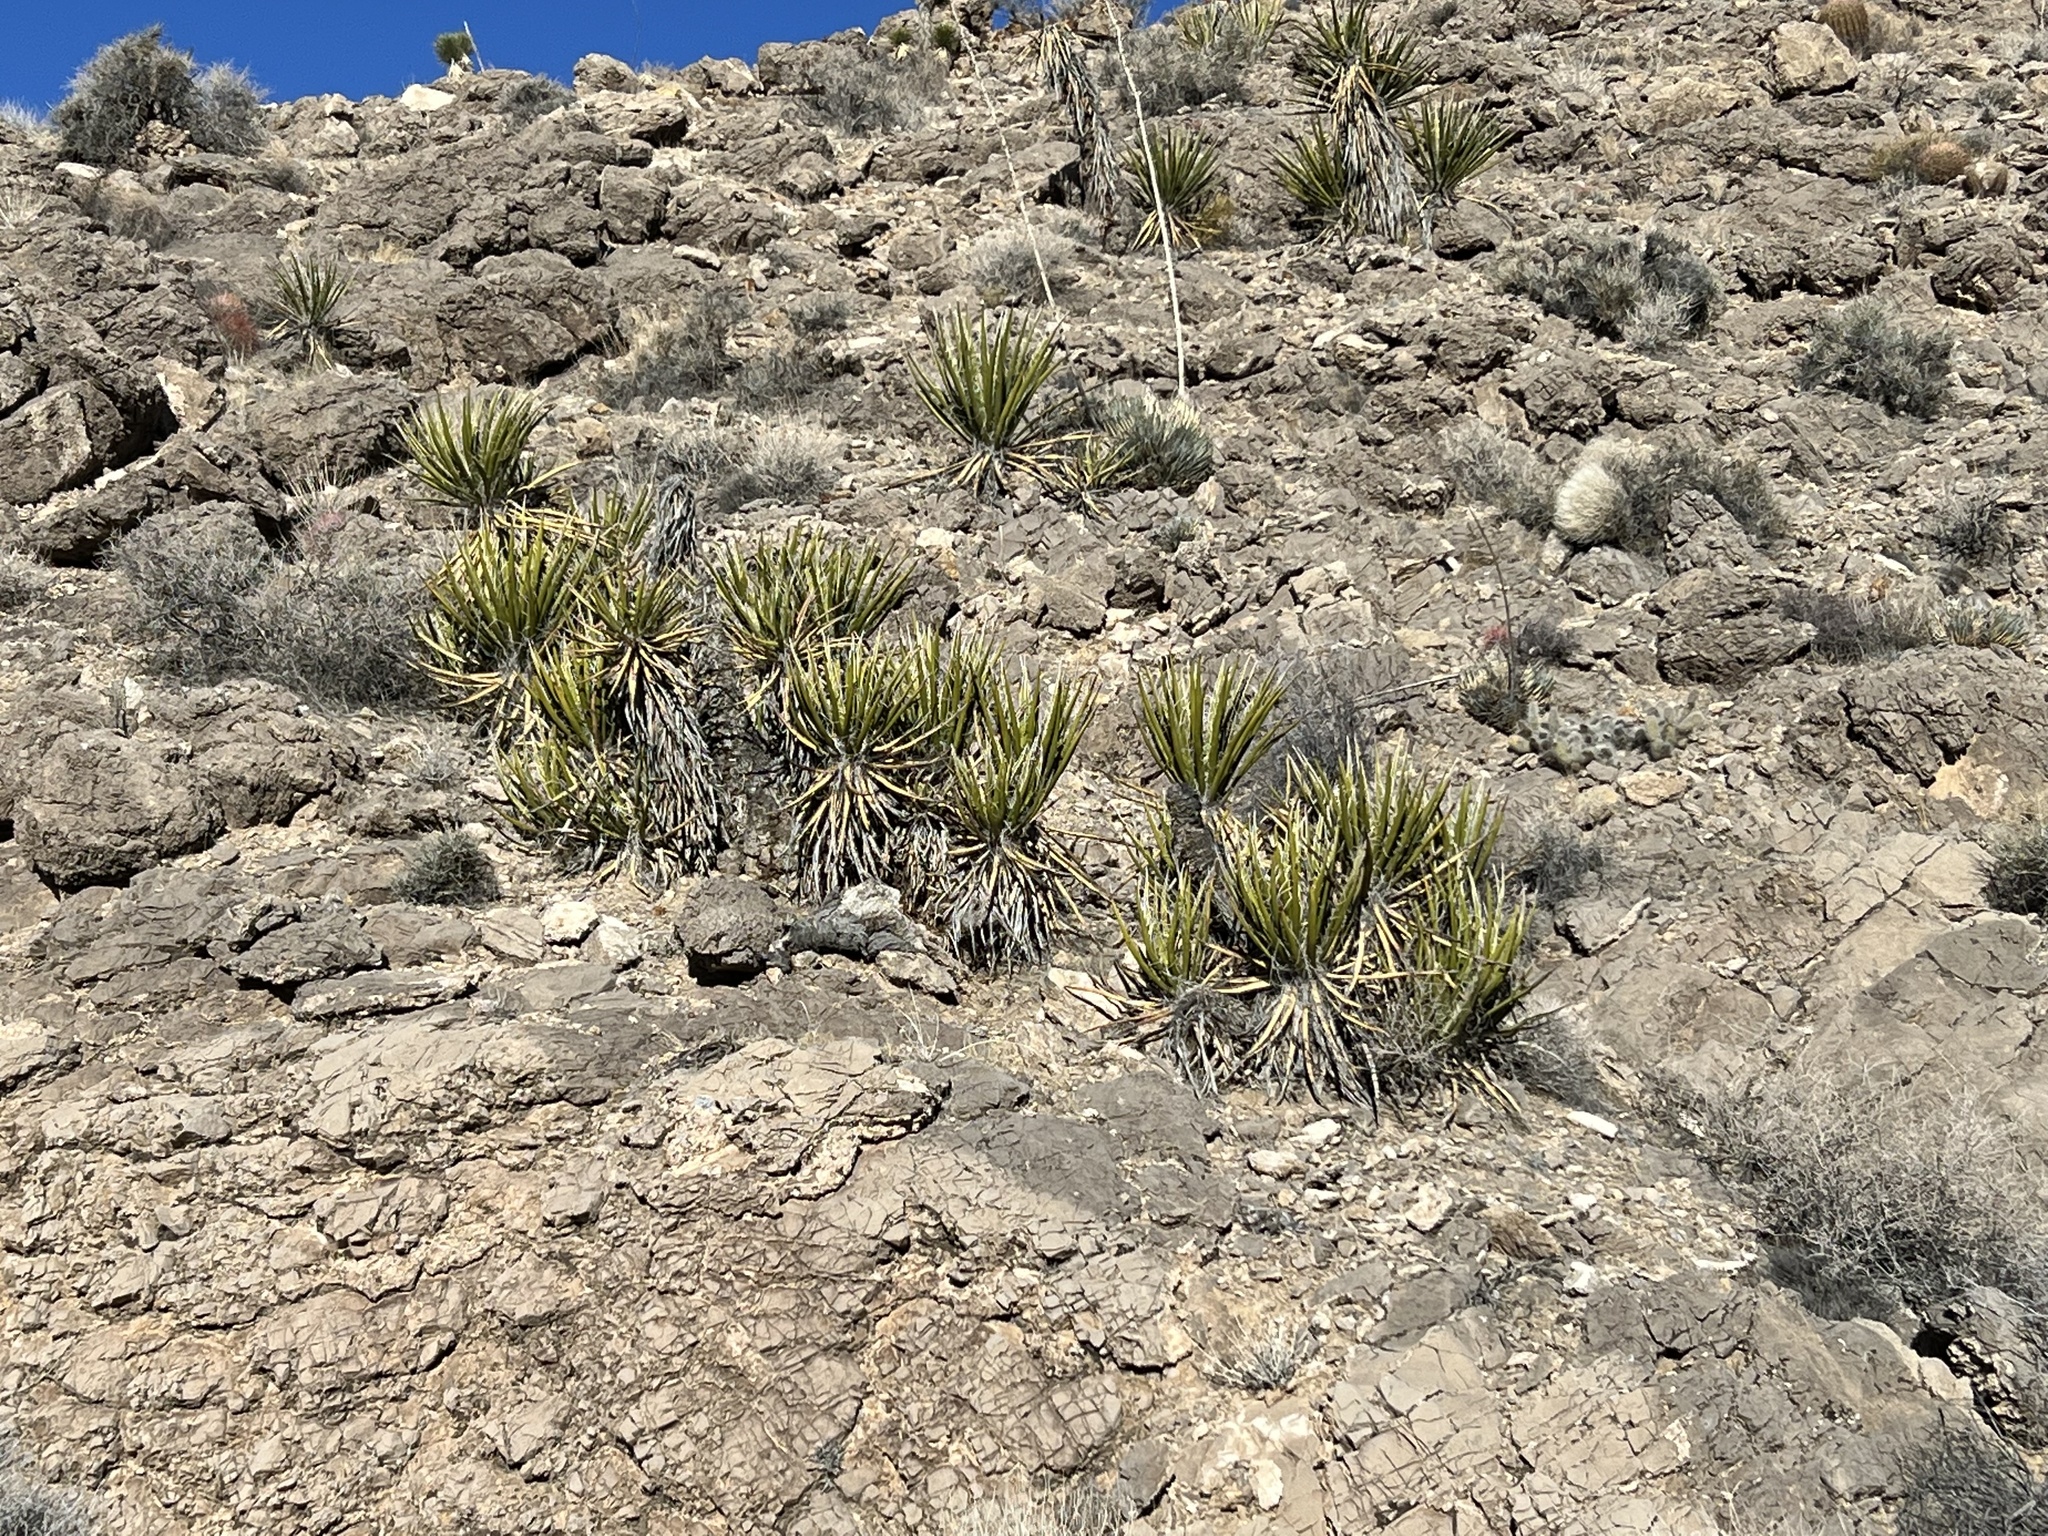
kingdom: Plantae
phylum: Tracheophyta
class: Liliopsida
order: Asparagales
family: Asparagaceae
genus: Yucca
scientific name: Yucca schidigera
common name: Mojave yucca
